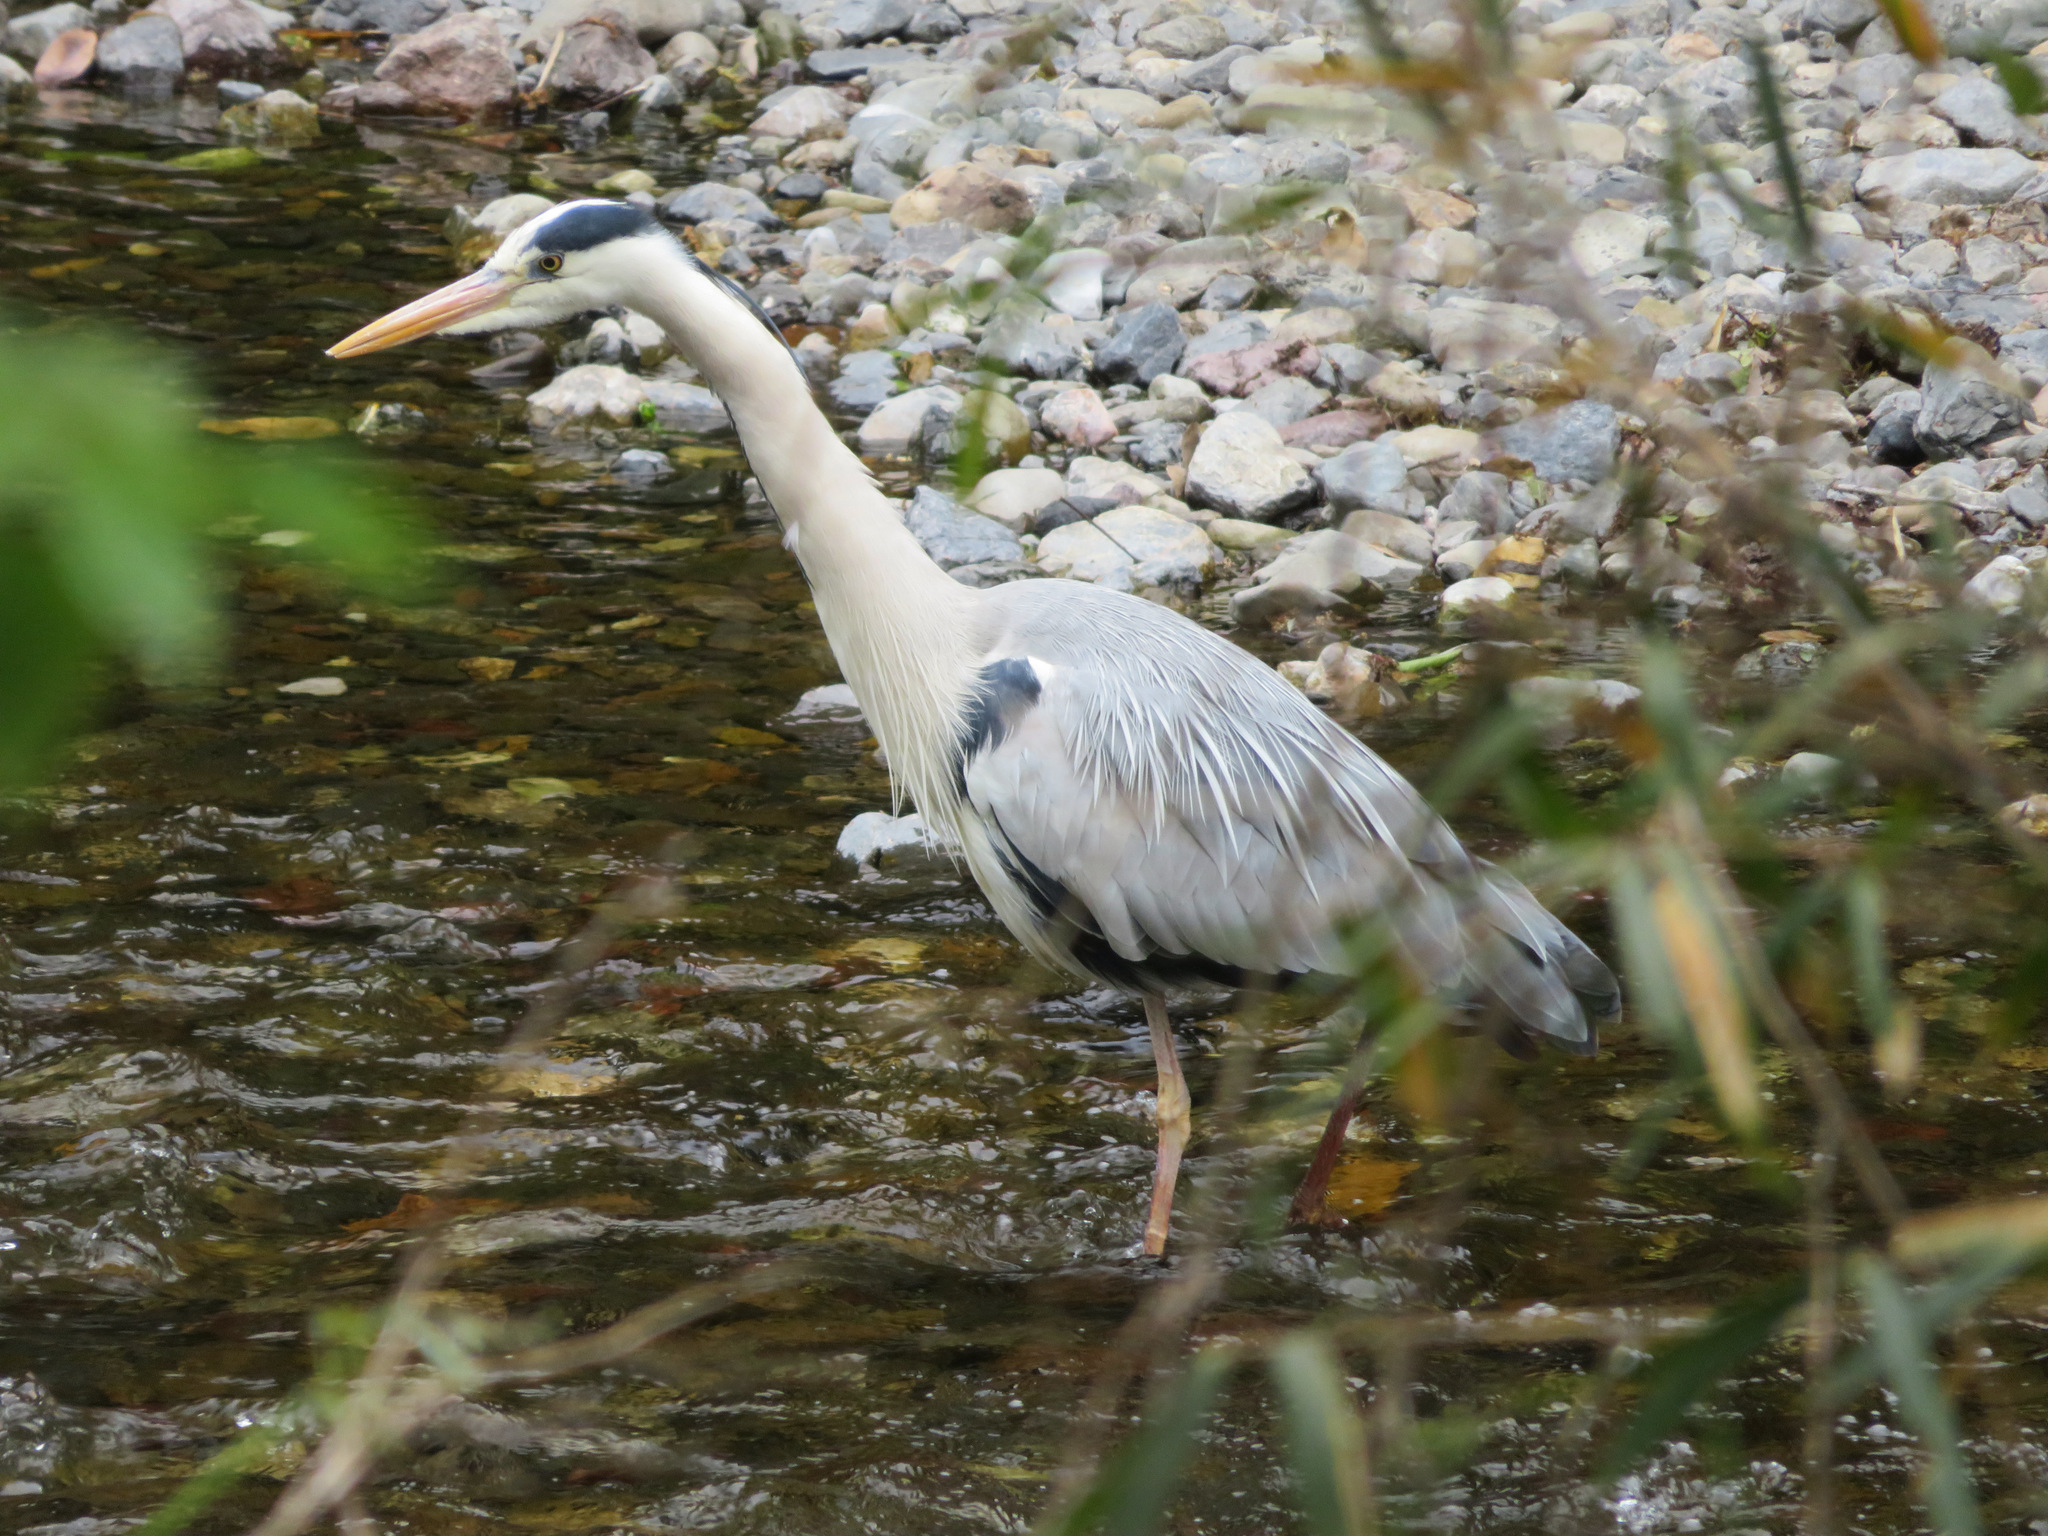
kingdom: Animalia
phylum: Chordata
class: Aves
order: Pelecaniformes
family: Ardeidae
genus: Ardea
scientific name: Ardea cinerea
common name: Grey heron
